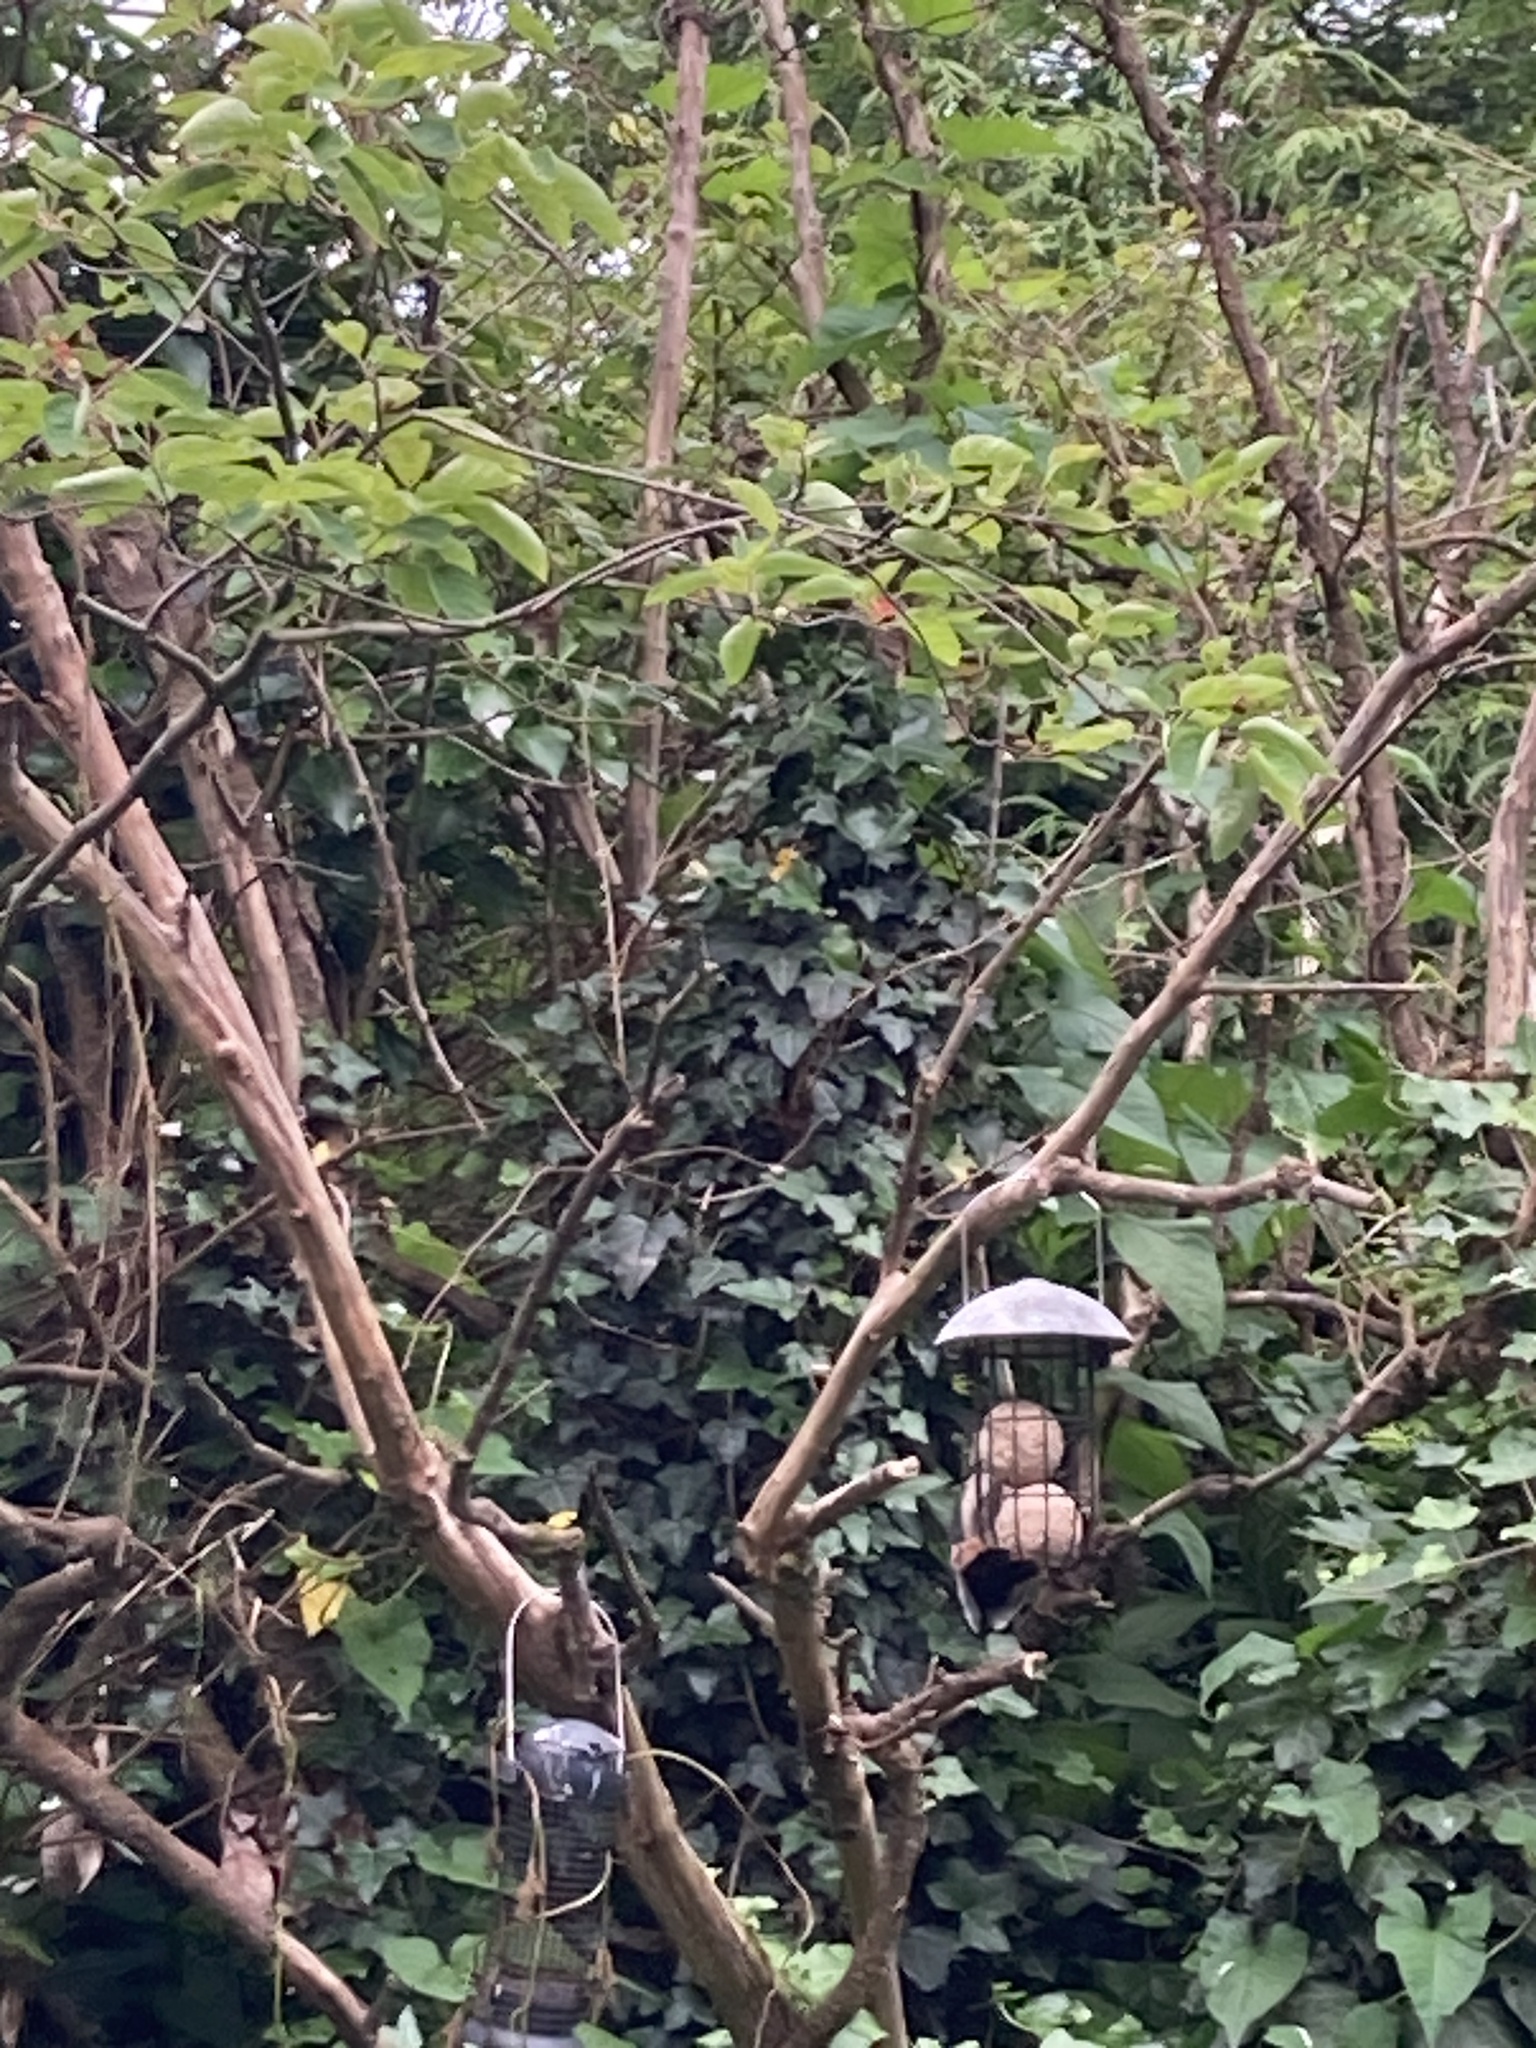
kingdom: Animalia
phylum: Chordata
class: Aves
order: Piciformes
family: Picidae
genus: Dendrocopos
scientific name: Dendrocopos major
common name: Great spotted woodpecker
